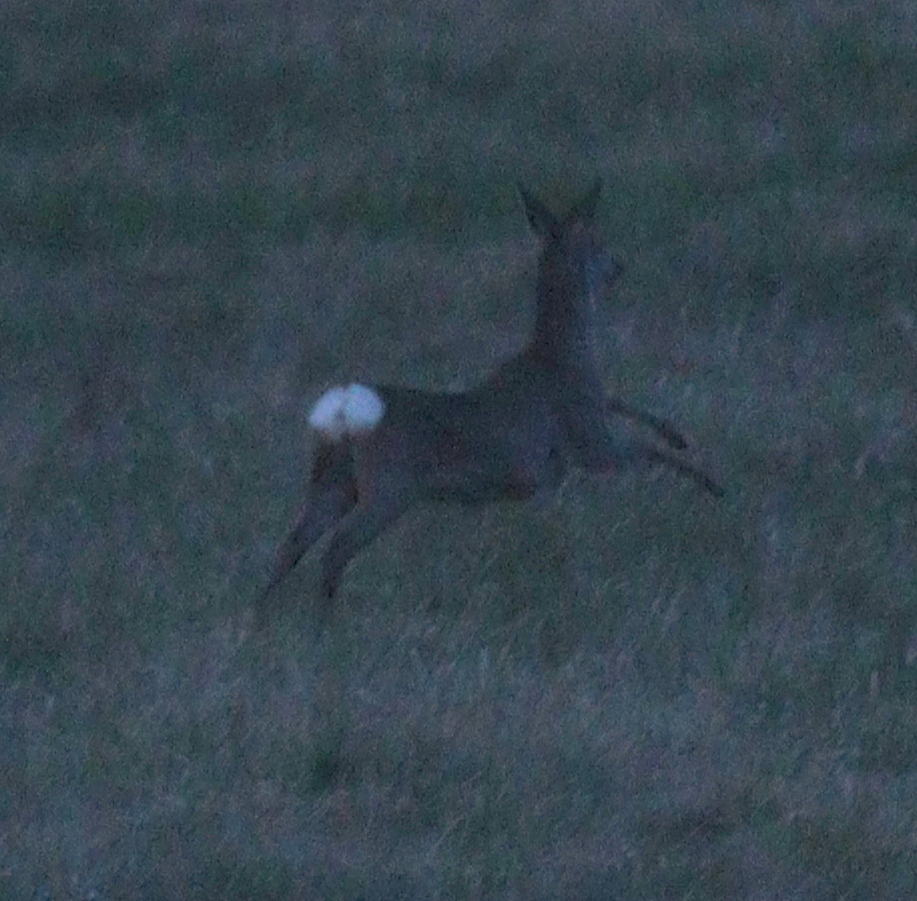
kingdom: Animalia
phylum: Chordata
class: Mammalia
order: Artiodactyla
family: Cervidae
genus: Capreolus
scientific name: Capreolus capreolus
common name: Western roe deer
